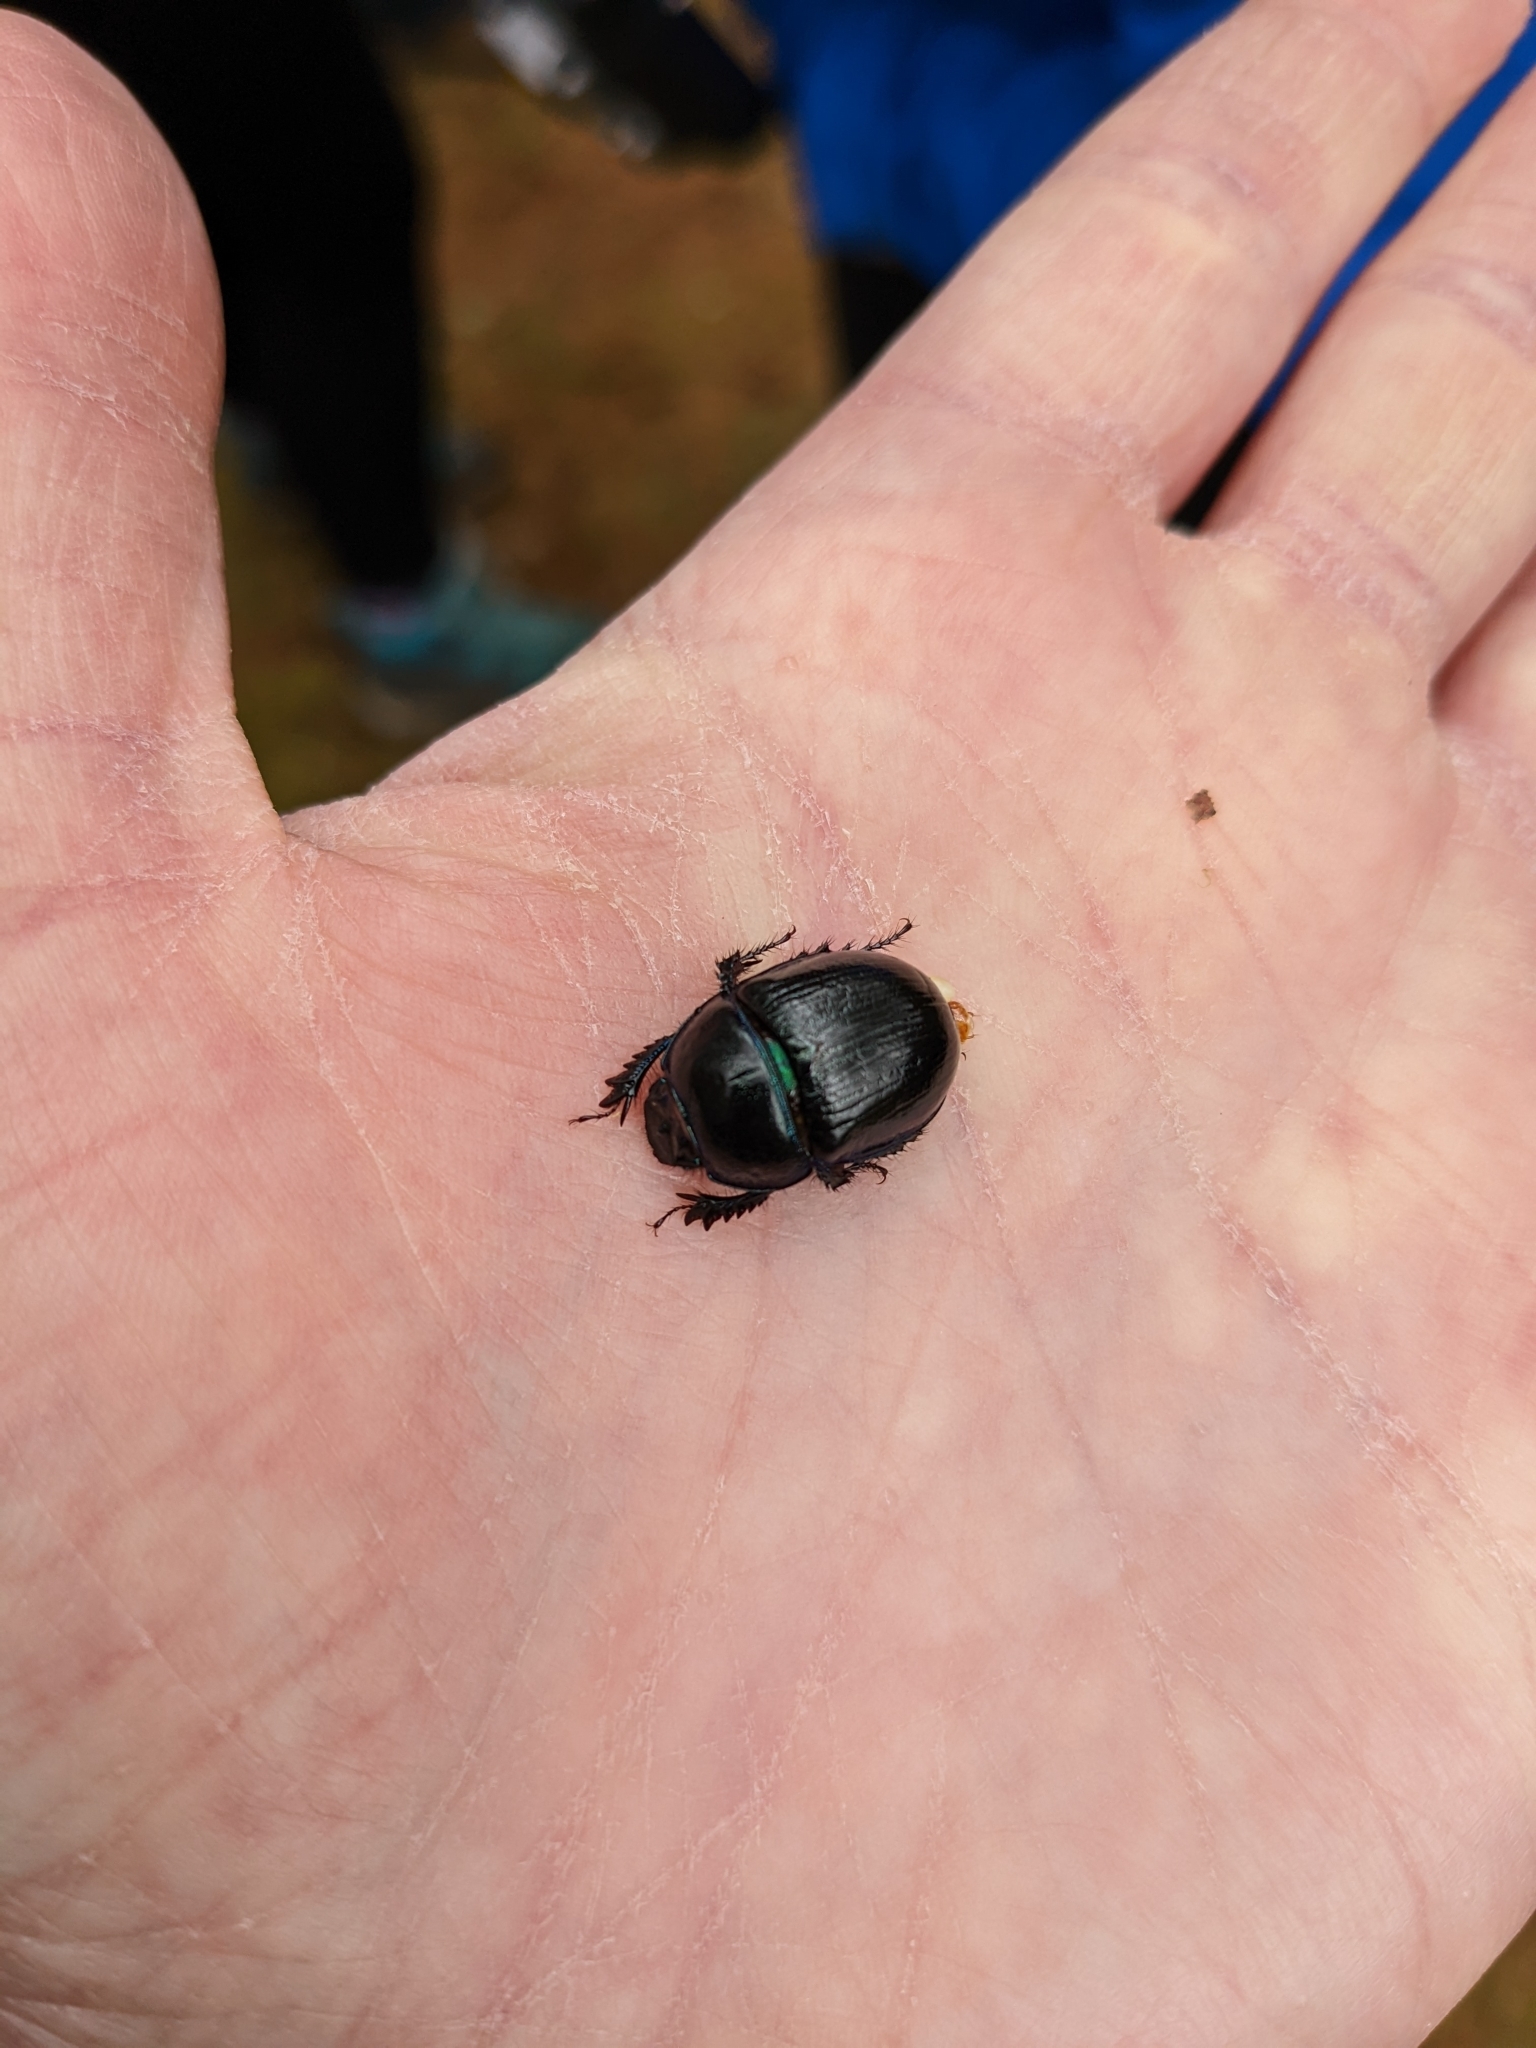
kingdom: Animalia
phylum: Arthropoda
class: Insecta
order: Coleoptera
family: Geotrupidae
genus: Anoplotrupes
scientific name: Anoplotrupes stercorosus
